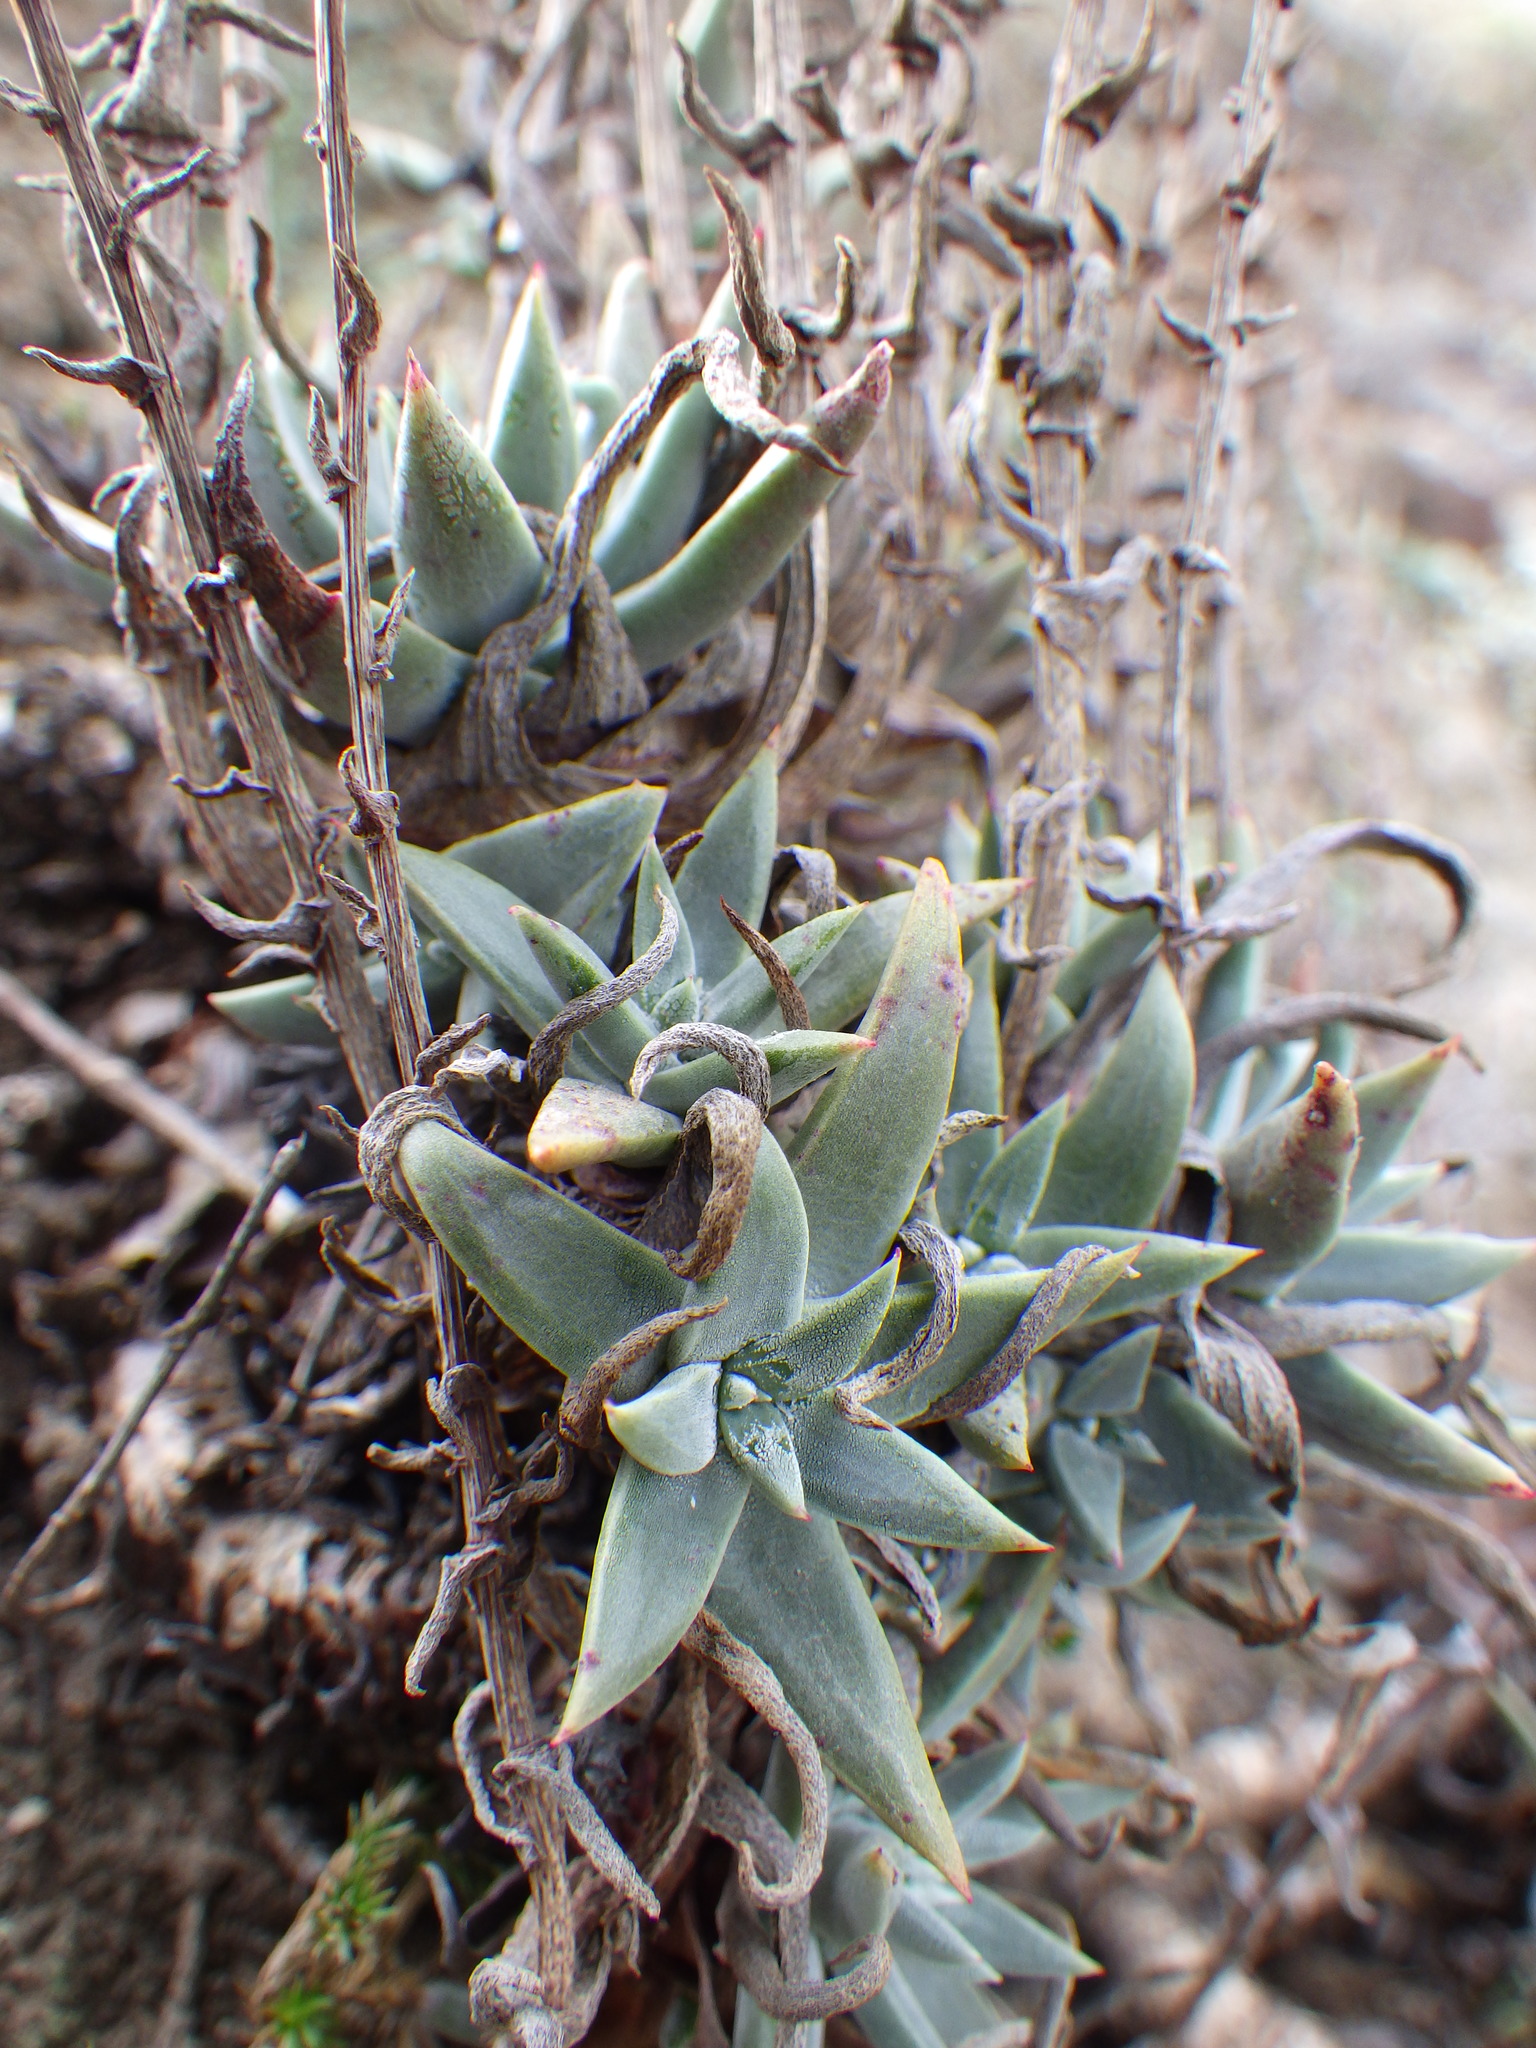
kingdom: Plantae
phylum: Tracheophyta
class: Magnoliopsida
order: Saxifragales
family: Crassulaceae
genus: Dudleya
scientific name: Dudleya verityi
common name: Verity dudleya
